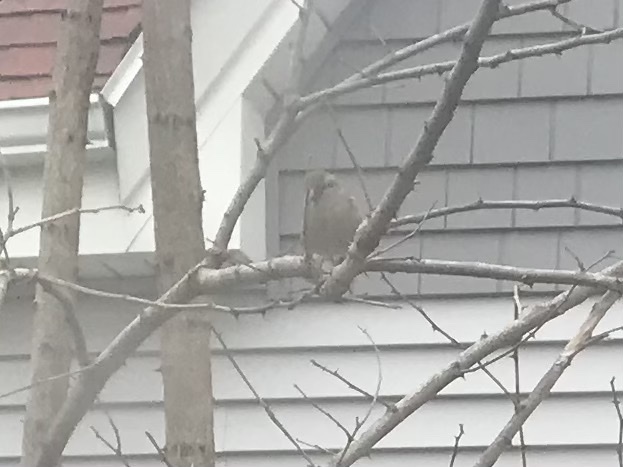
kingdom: Animalia
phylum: Chordata
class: Aves
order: Passeriformes
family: Passeridae
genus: Passer
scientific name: Passer domesticus
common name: House sparrow
